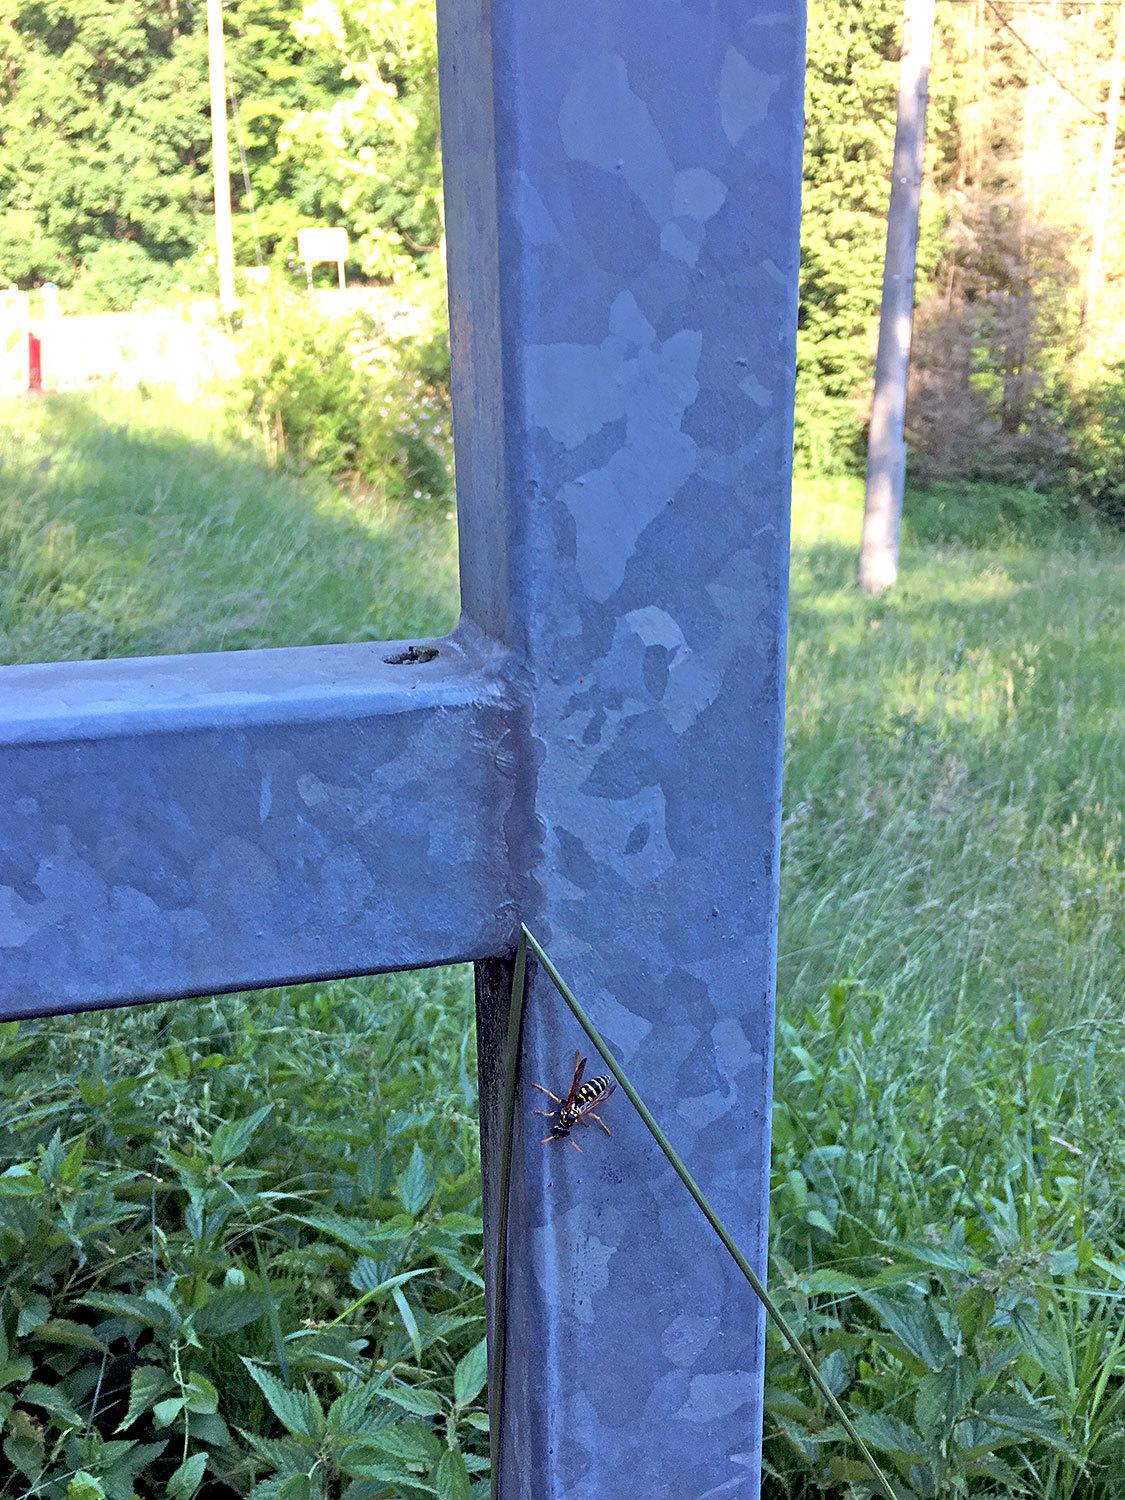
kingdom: Animalia
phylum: Arthropoda
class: Insecta
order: Hymenoptera
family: Eumenidae
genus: Polistes
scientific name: Polistes dominula
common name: Paper wasp
